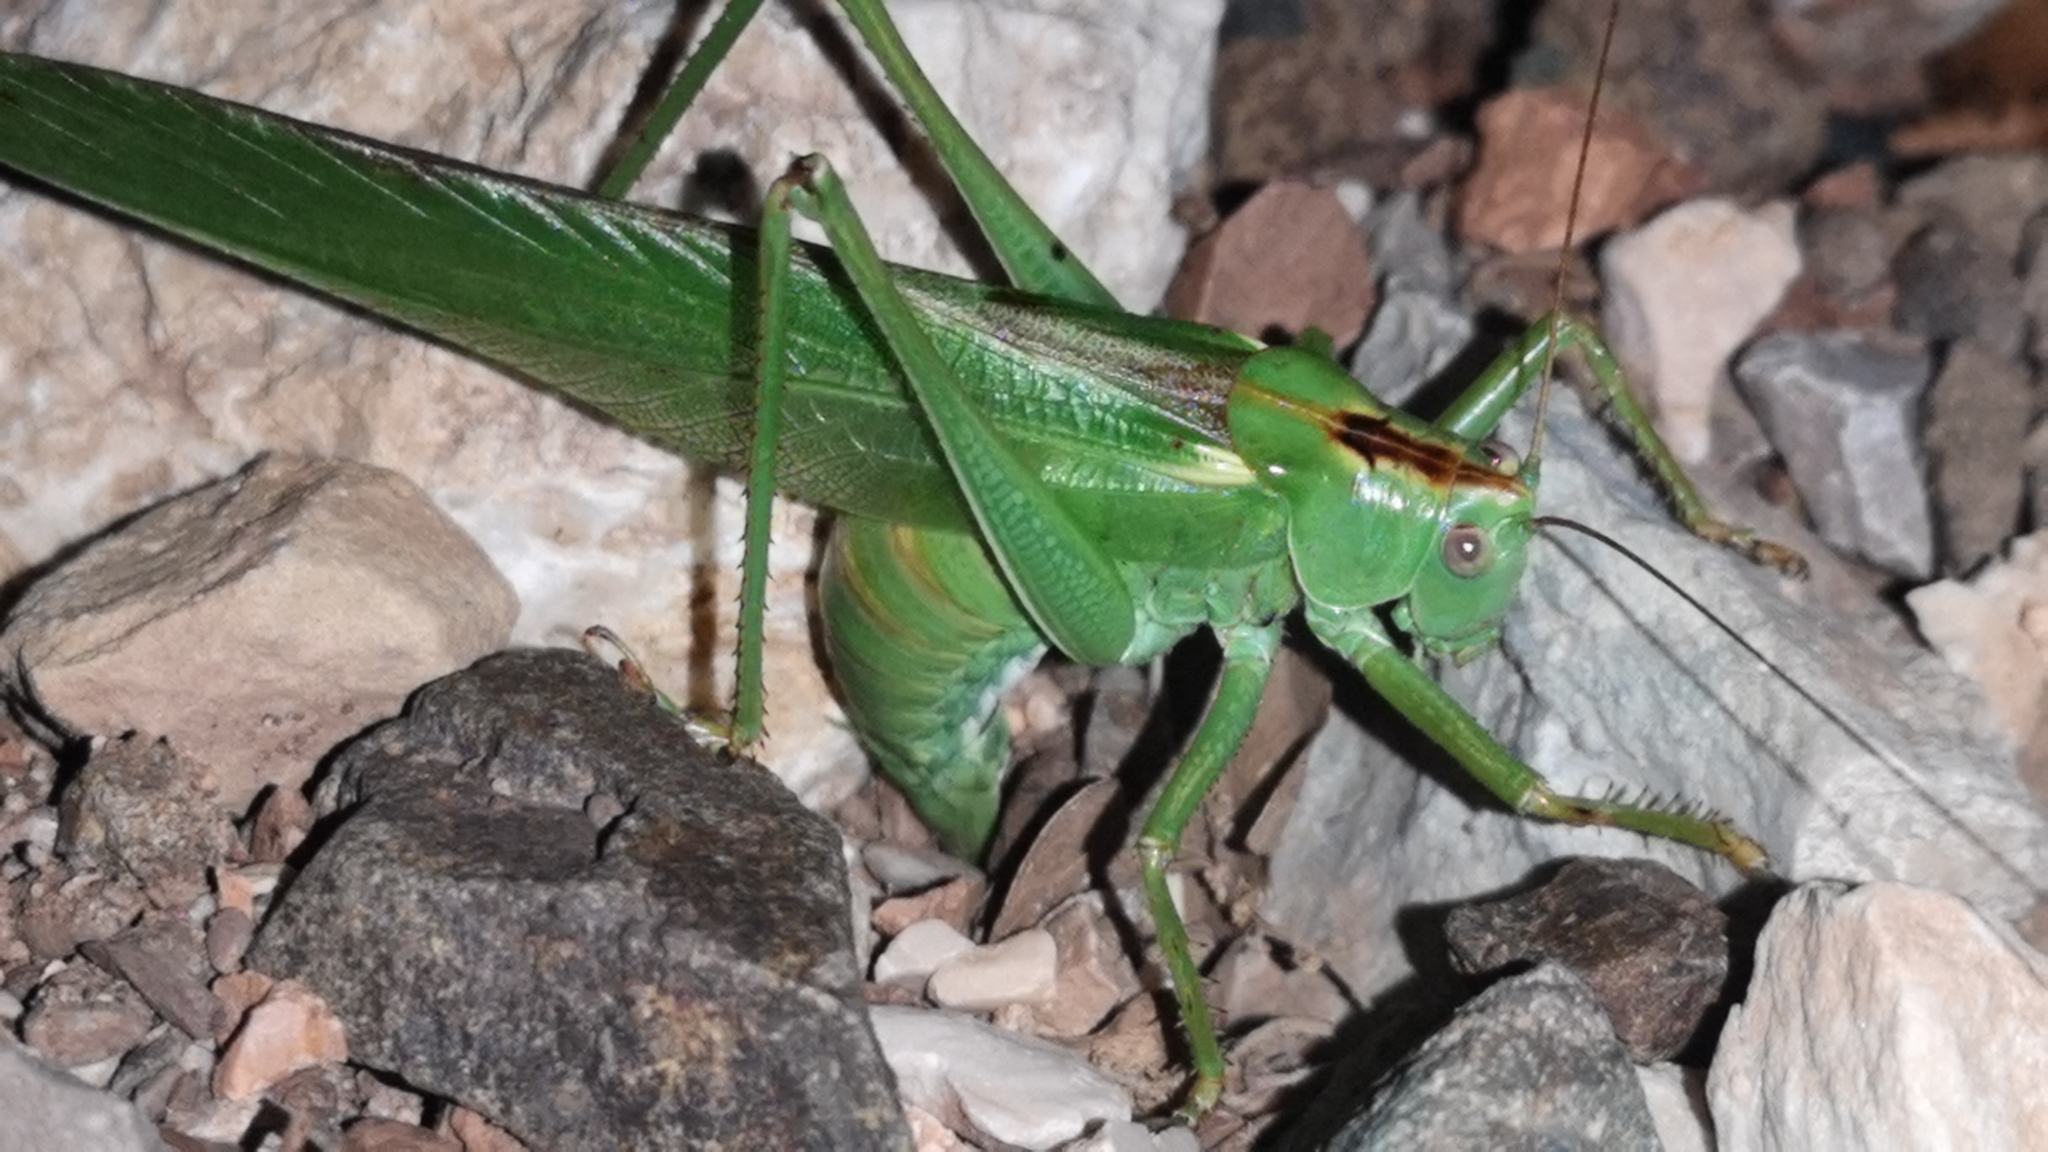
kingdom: Animalia
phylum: Arthropoda
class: Insecta
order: Orthoptera
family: Tettigoniidae
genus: Tettigonia
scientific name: Tettigonia viridissima
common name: Great green bush-cricket
